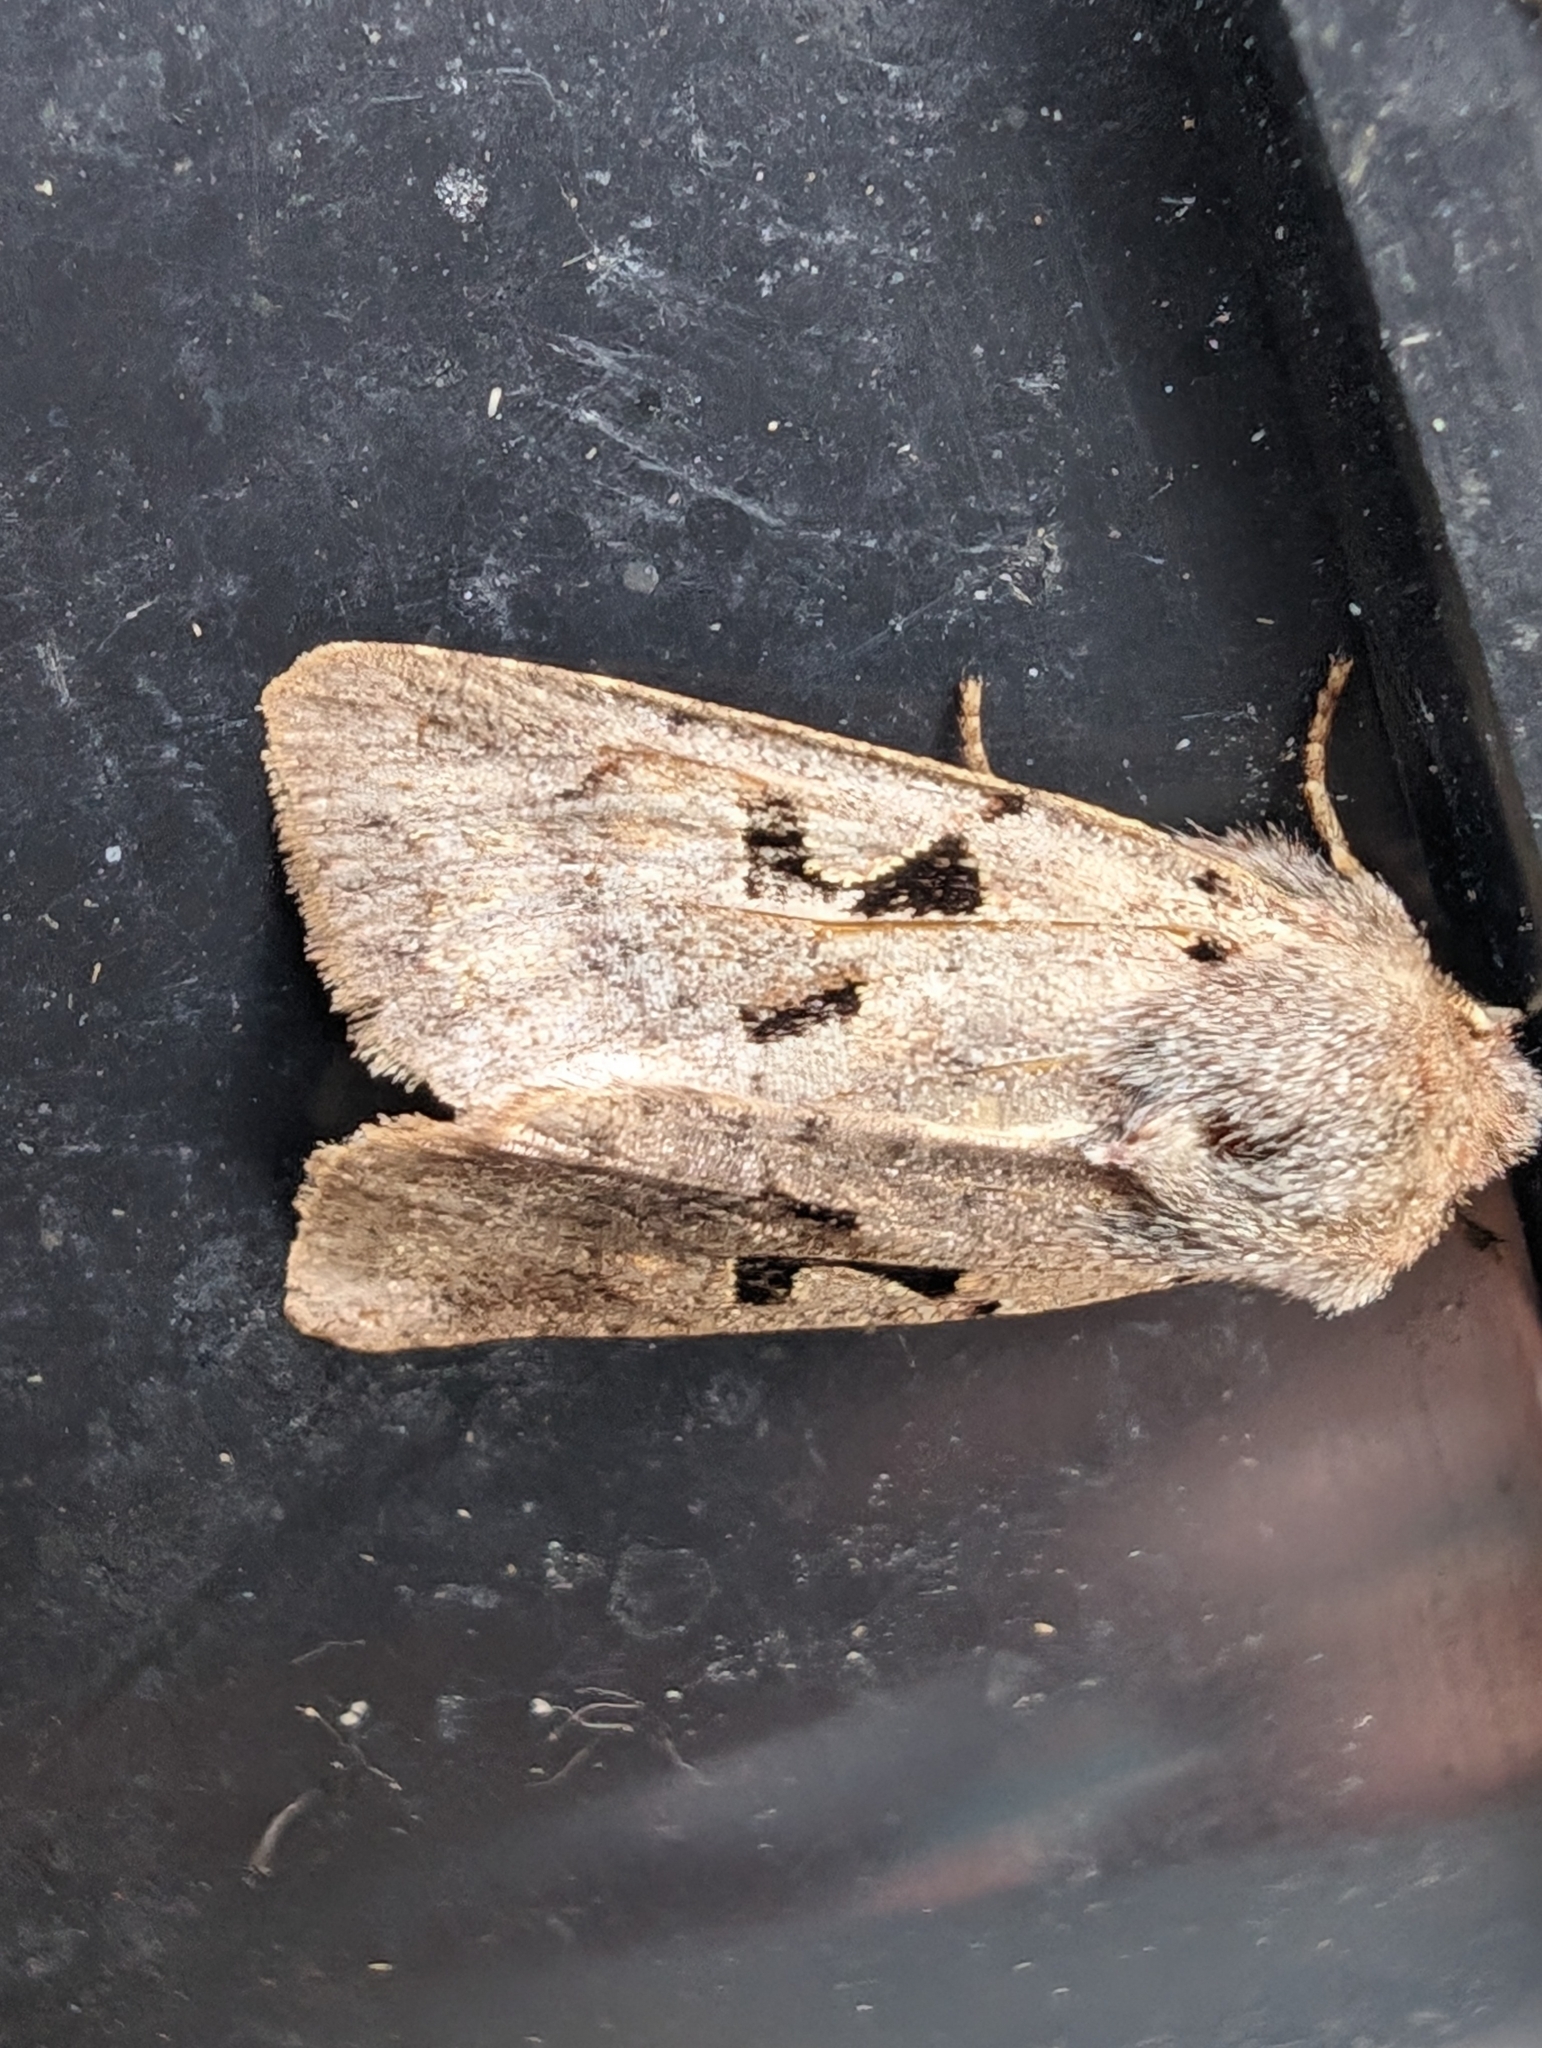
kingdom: Animalia
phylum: Arthropoda
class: Insecta
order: Lepidoptera
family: Noctuidae
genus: Orthosia
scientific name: Orthosia gothica
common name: Hebrew character
